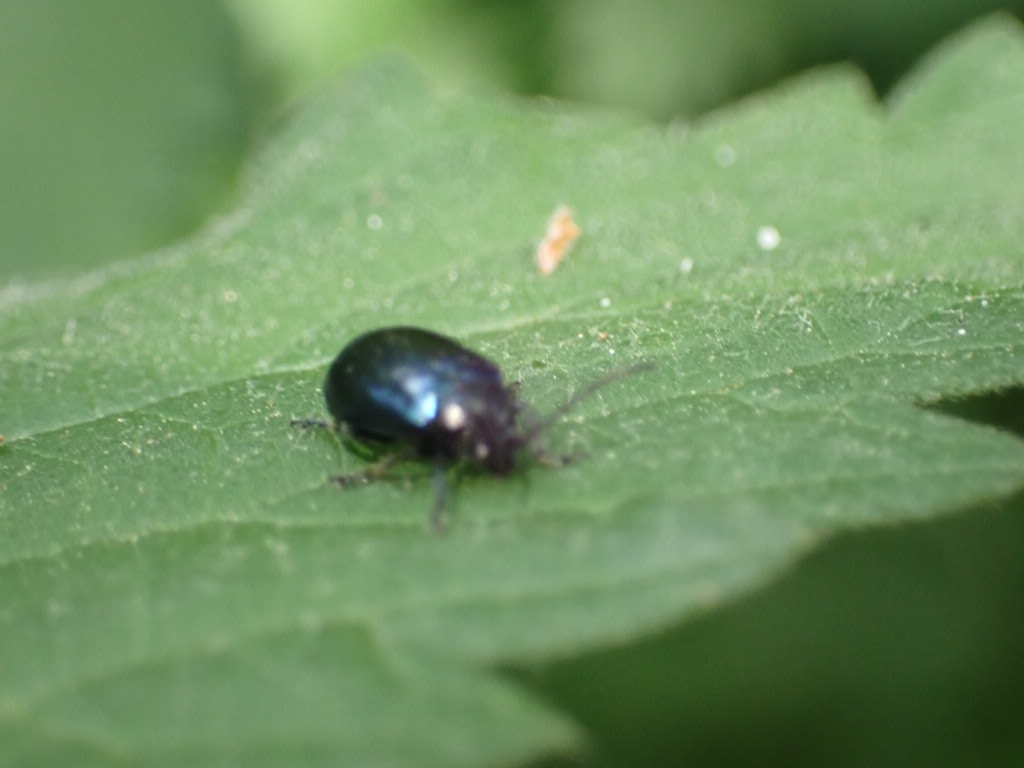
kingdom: Animalia
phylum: Arthropoda
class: Insecta
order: Coleoptera
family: Chrysomelidae
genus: Agelastica
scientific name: Agelastica alni
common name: Alder leaf beetle
